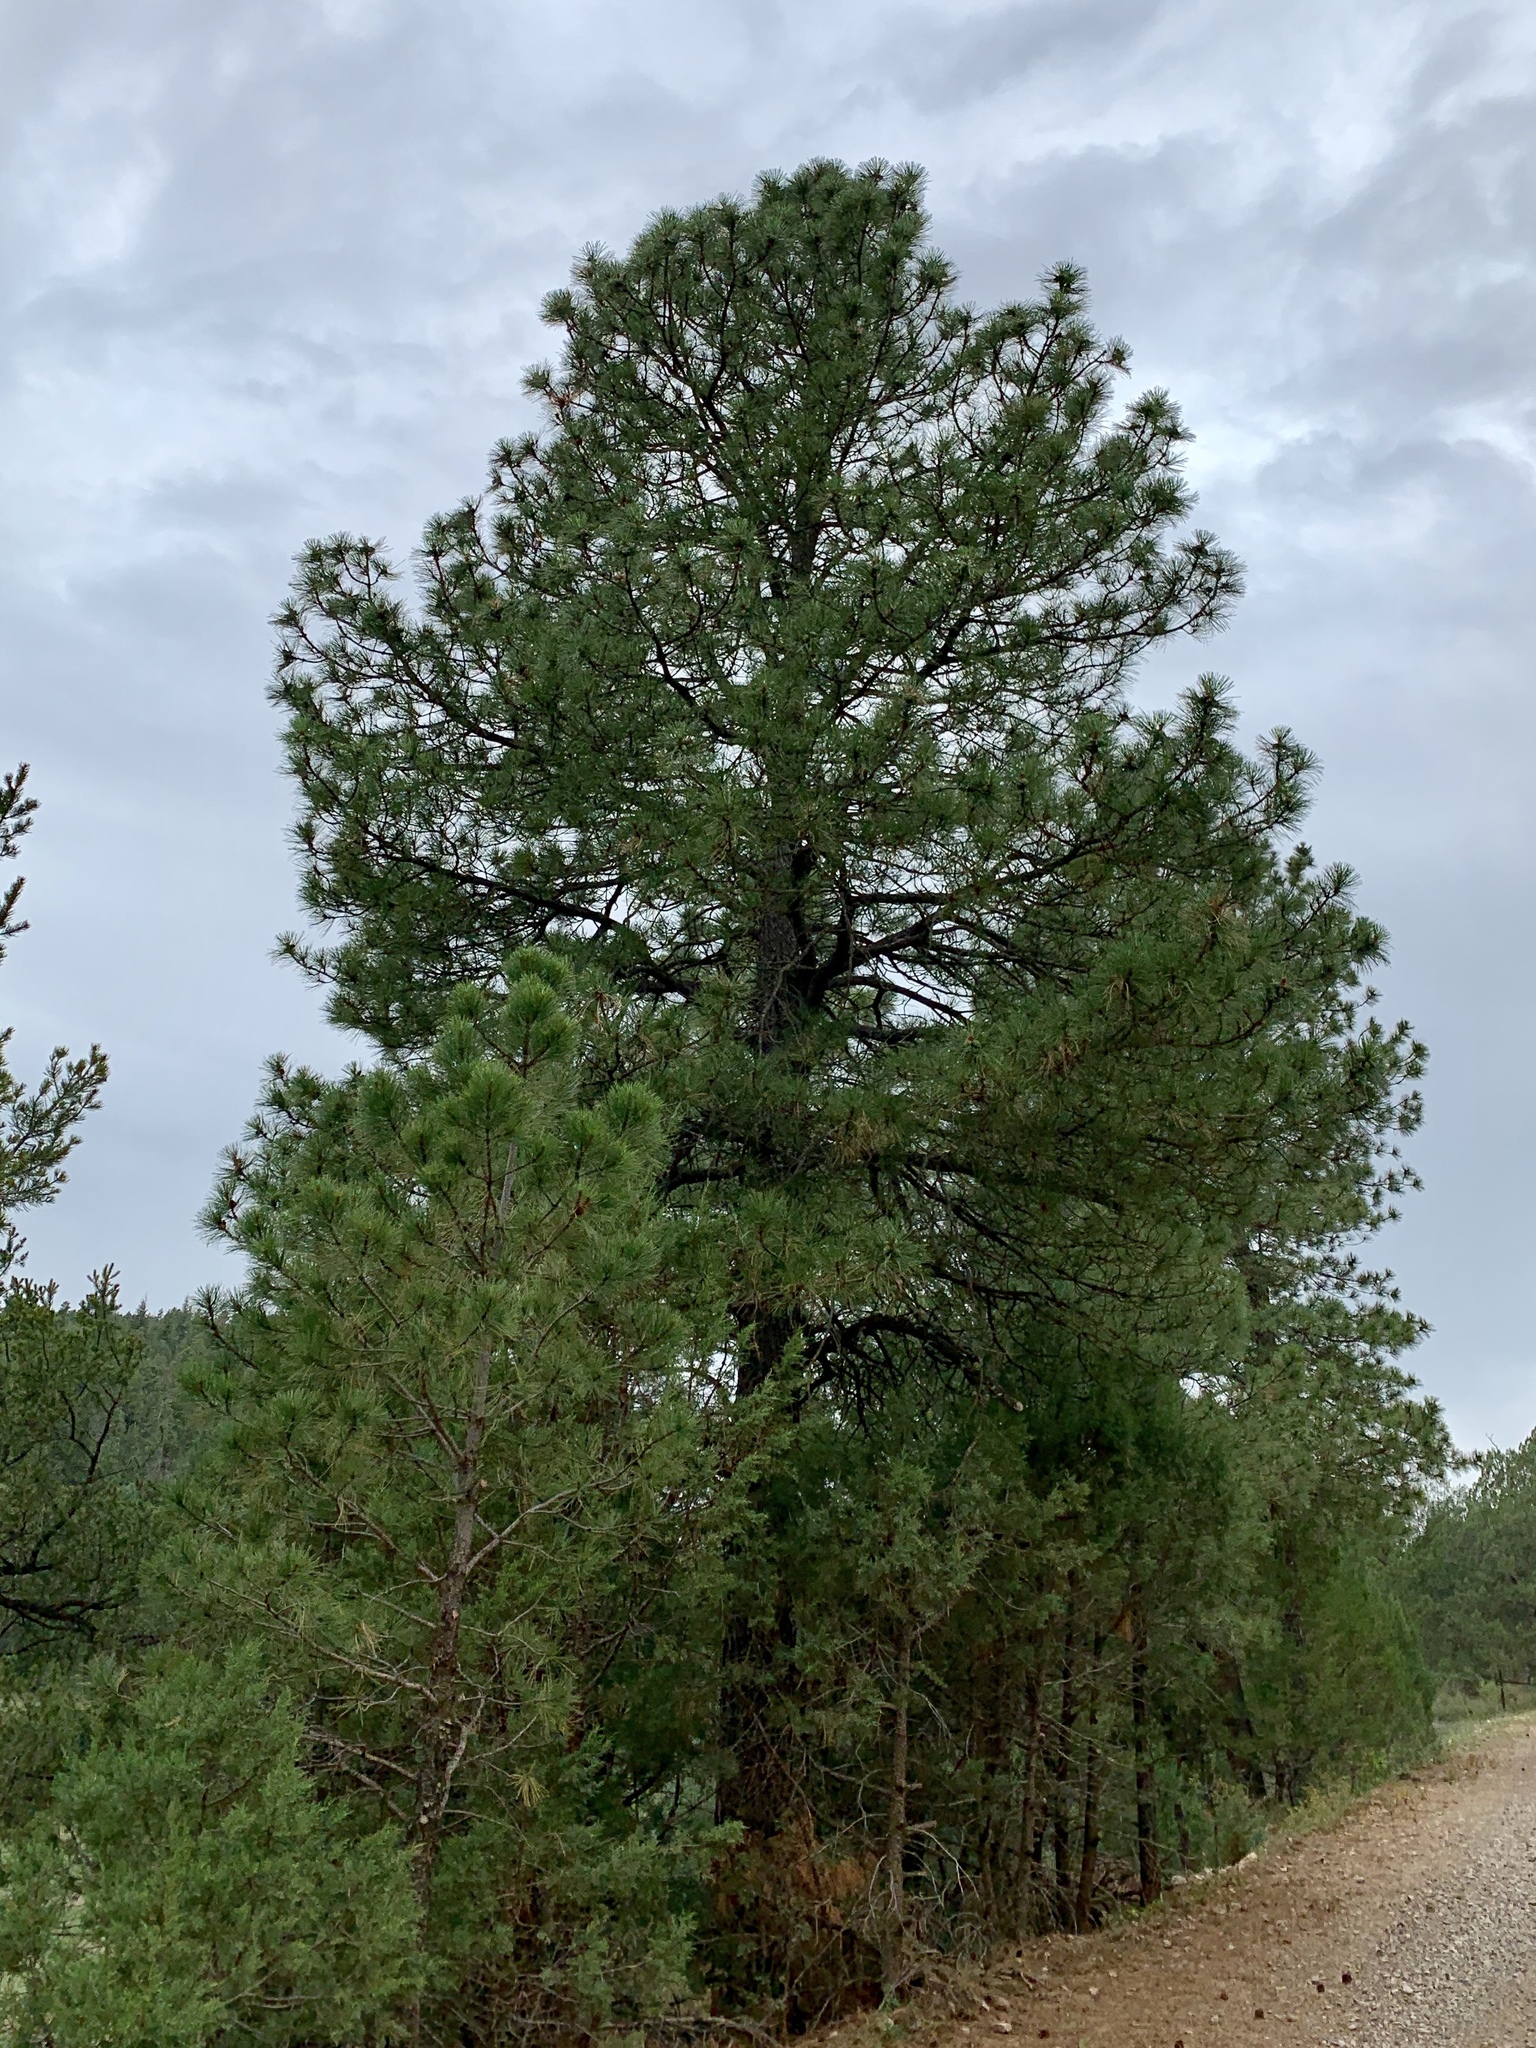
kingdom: Plantae
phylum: Tracheophyta
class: Pinopsida
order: Pinales
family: Pinaceae
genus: Pinus
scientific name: Pinus ponderosa
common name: Western yellow-pine
